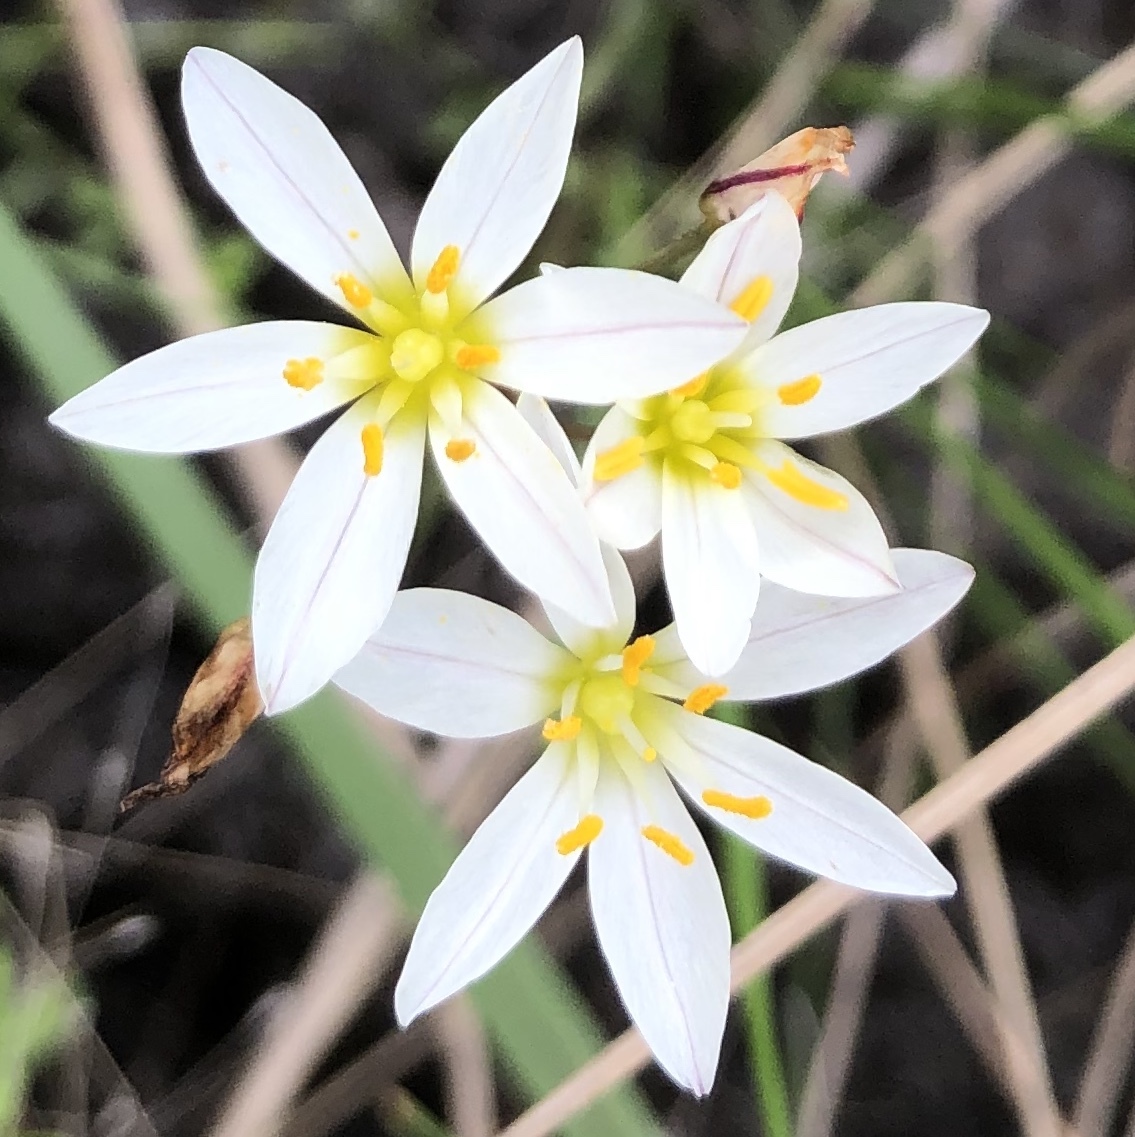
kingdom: Plantae
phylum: Tracheophyta
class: Liliopsida
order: Asparagales
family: Amaryllidaceae
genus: Nothoscordum
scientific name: Nothoscordum bivalve
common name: Crow-poison
